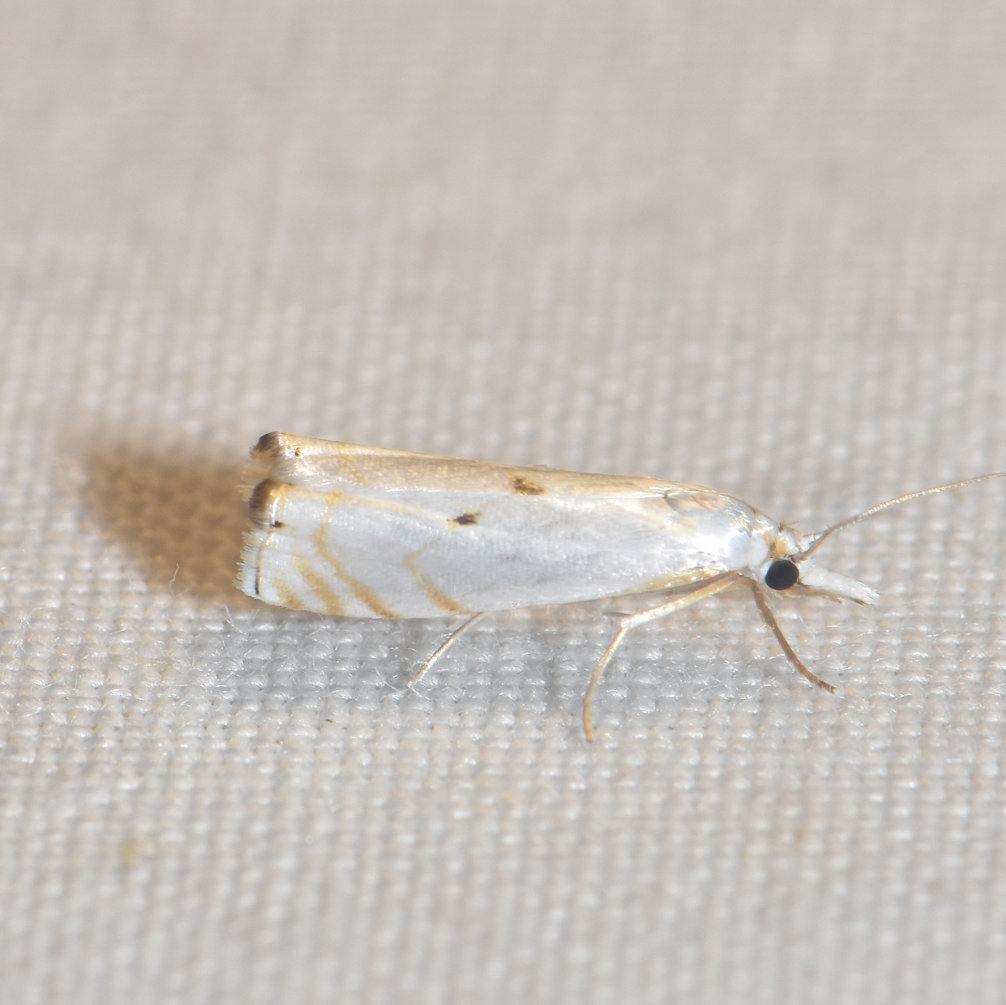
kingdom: Animalia
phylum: Arthropoda
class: Insecta
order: Lepidoptera
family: Crambidae
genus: Microcrambus
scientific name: Microcrambus biguttellus
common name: Gold-stripe grass-veneer moth
